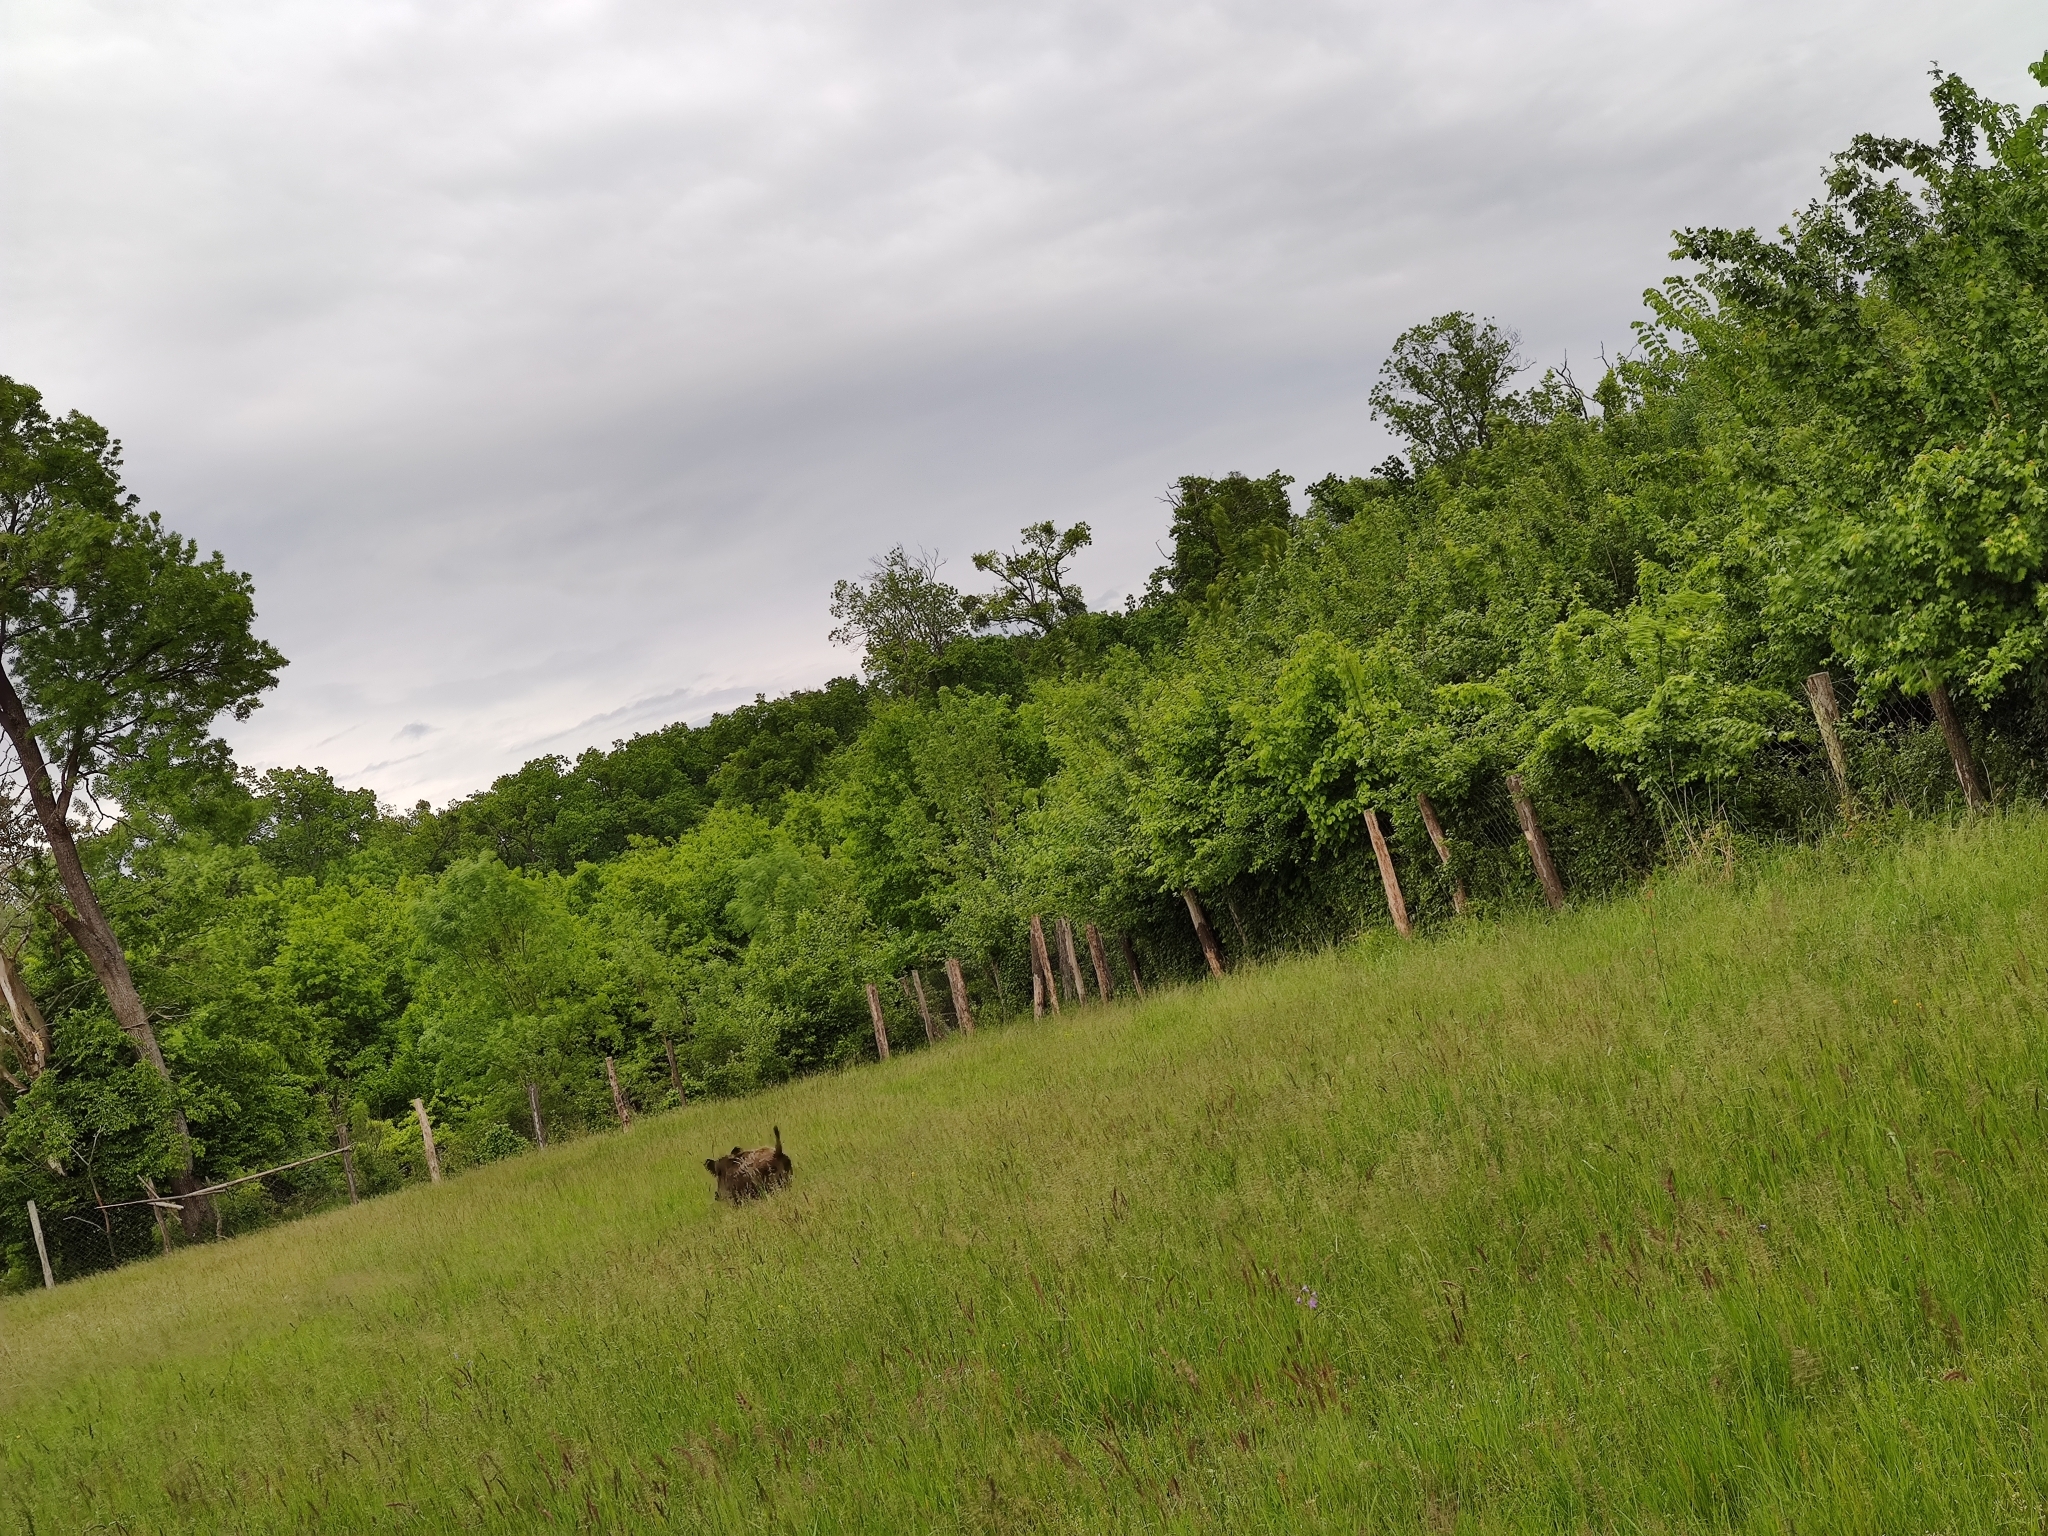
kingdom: Animalia
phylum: Chordata
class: Mammalia
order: Artiodactyla
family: Suidae
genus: Sus
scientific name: Sus scrofa
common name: Wild boar
